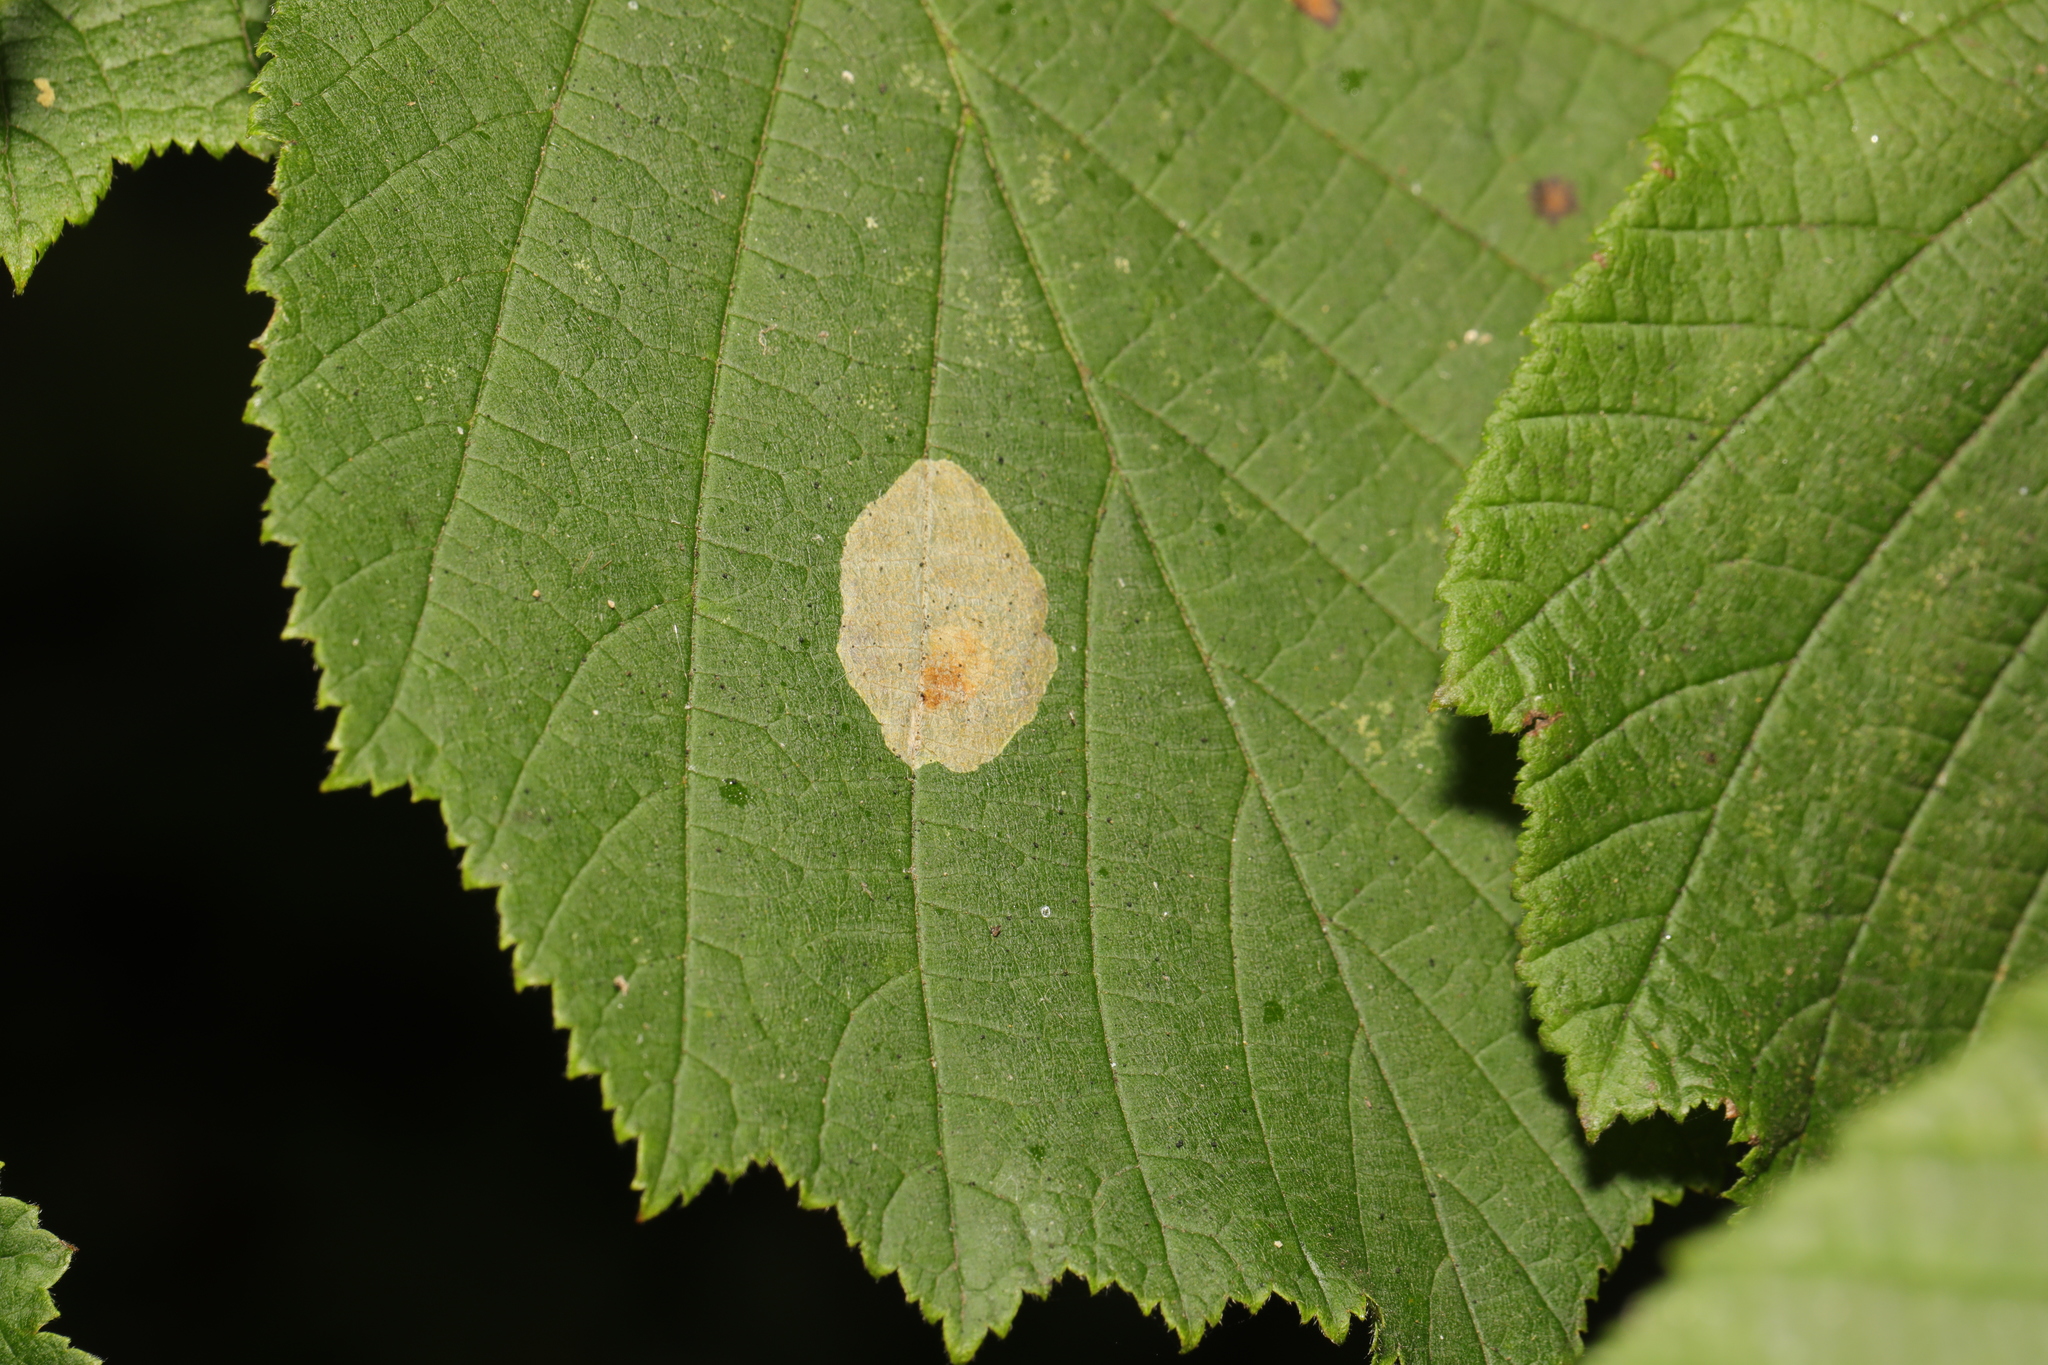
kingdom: Animalia
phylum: Arthropoda
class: Insecta
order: Lepidoptera
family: Gracillariidae
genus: Phyllonorycter
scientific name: Phyllonorycter coryli
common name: Nut-leaf blister moth
